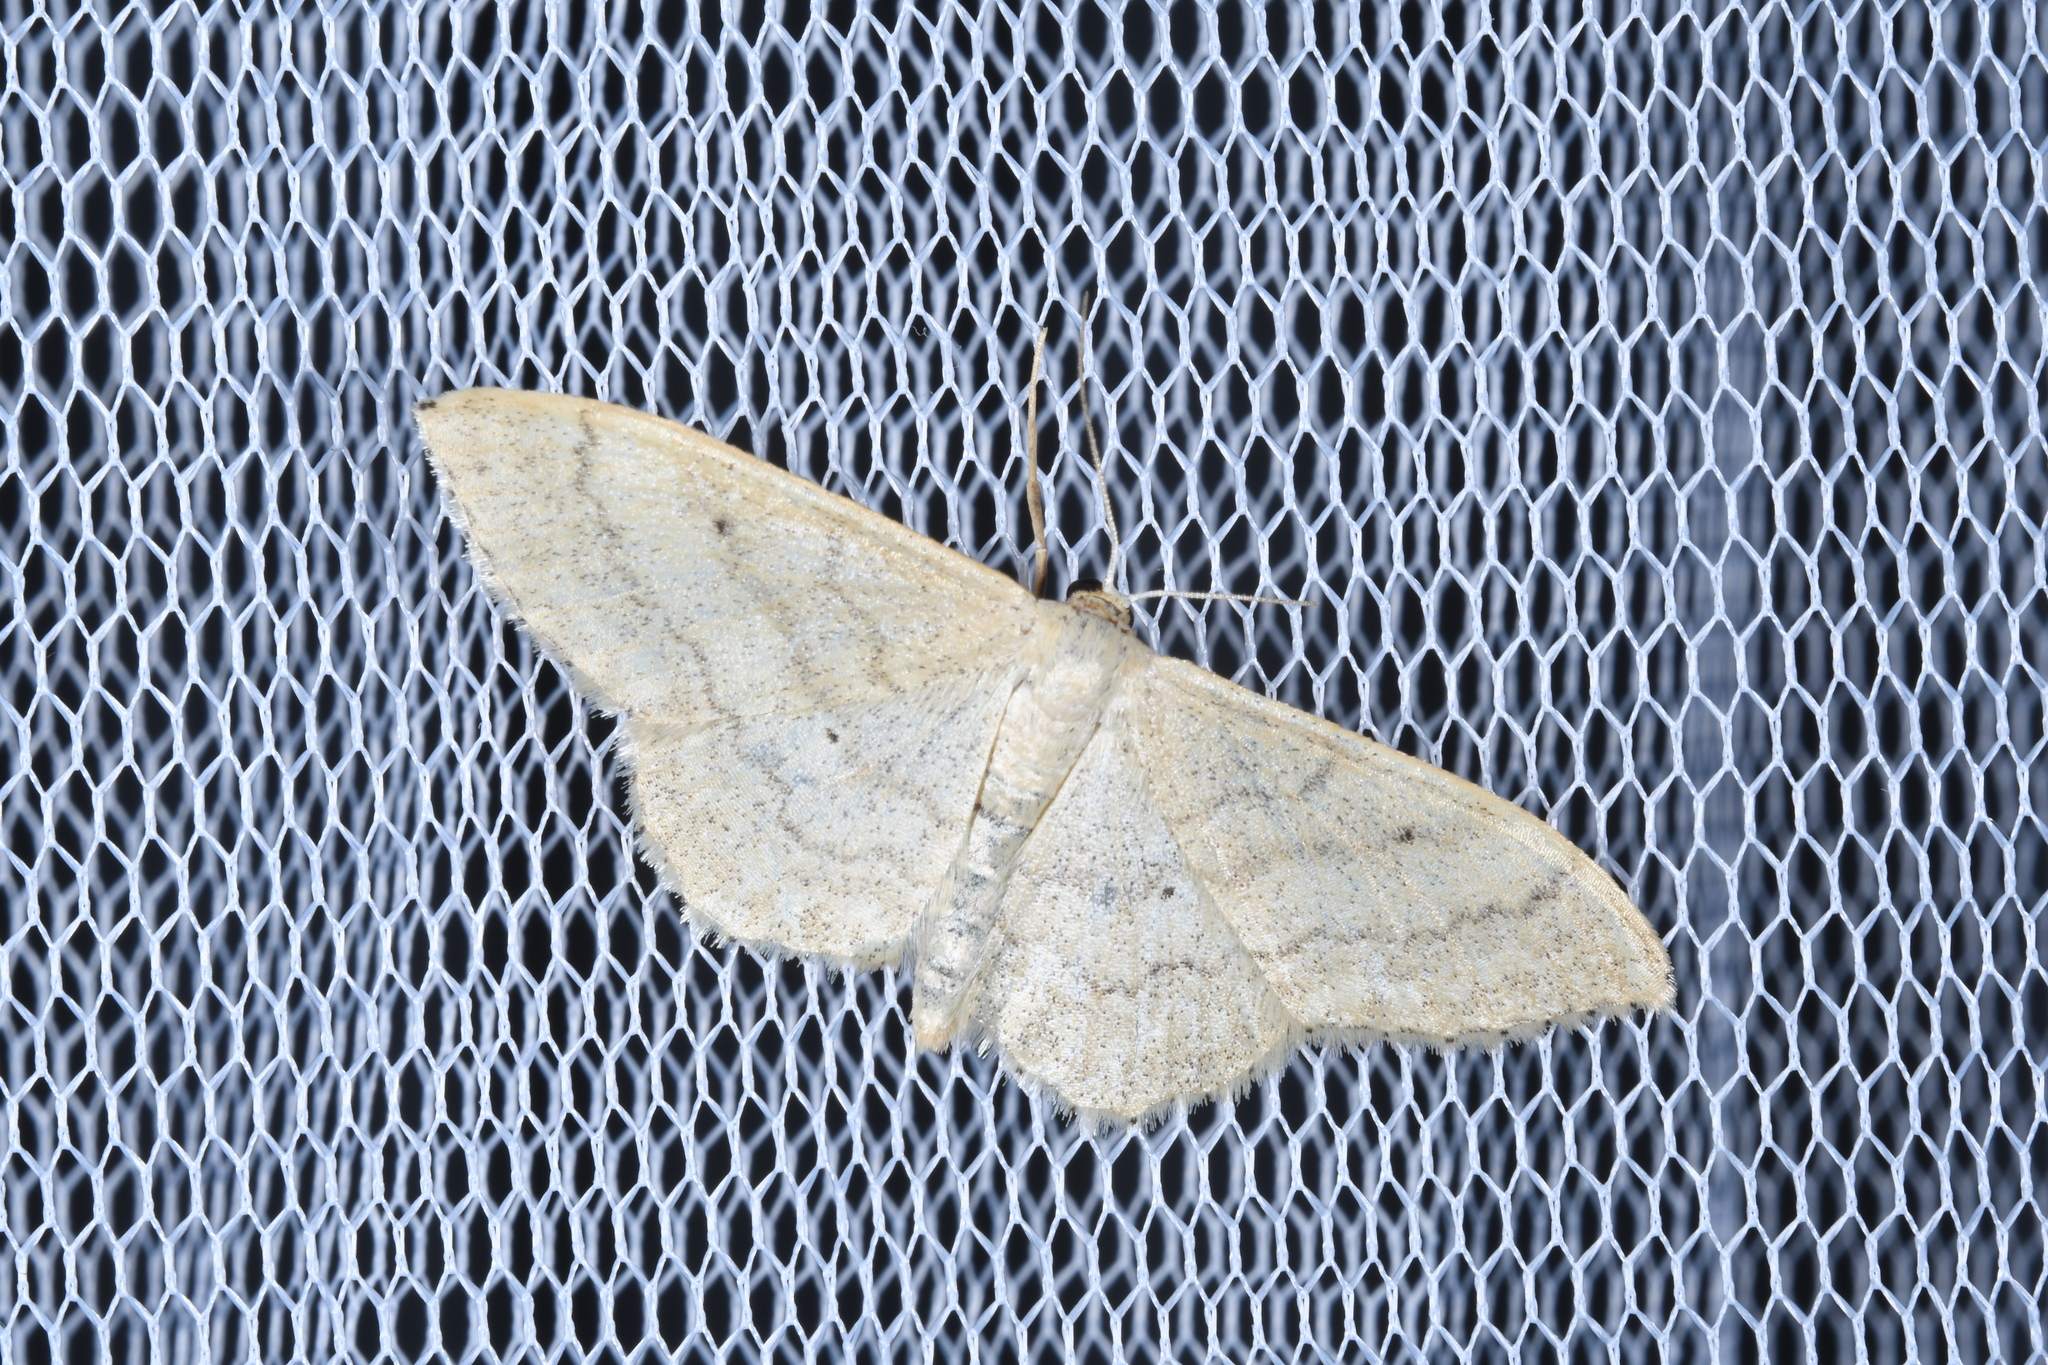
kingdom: Animalia
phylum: Arthropoda
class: Insecta
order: Lepidoptera
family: Geometridae
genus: Idaea
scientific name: Idaea maritimaria
